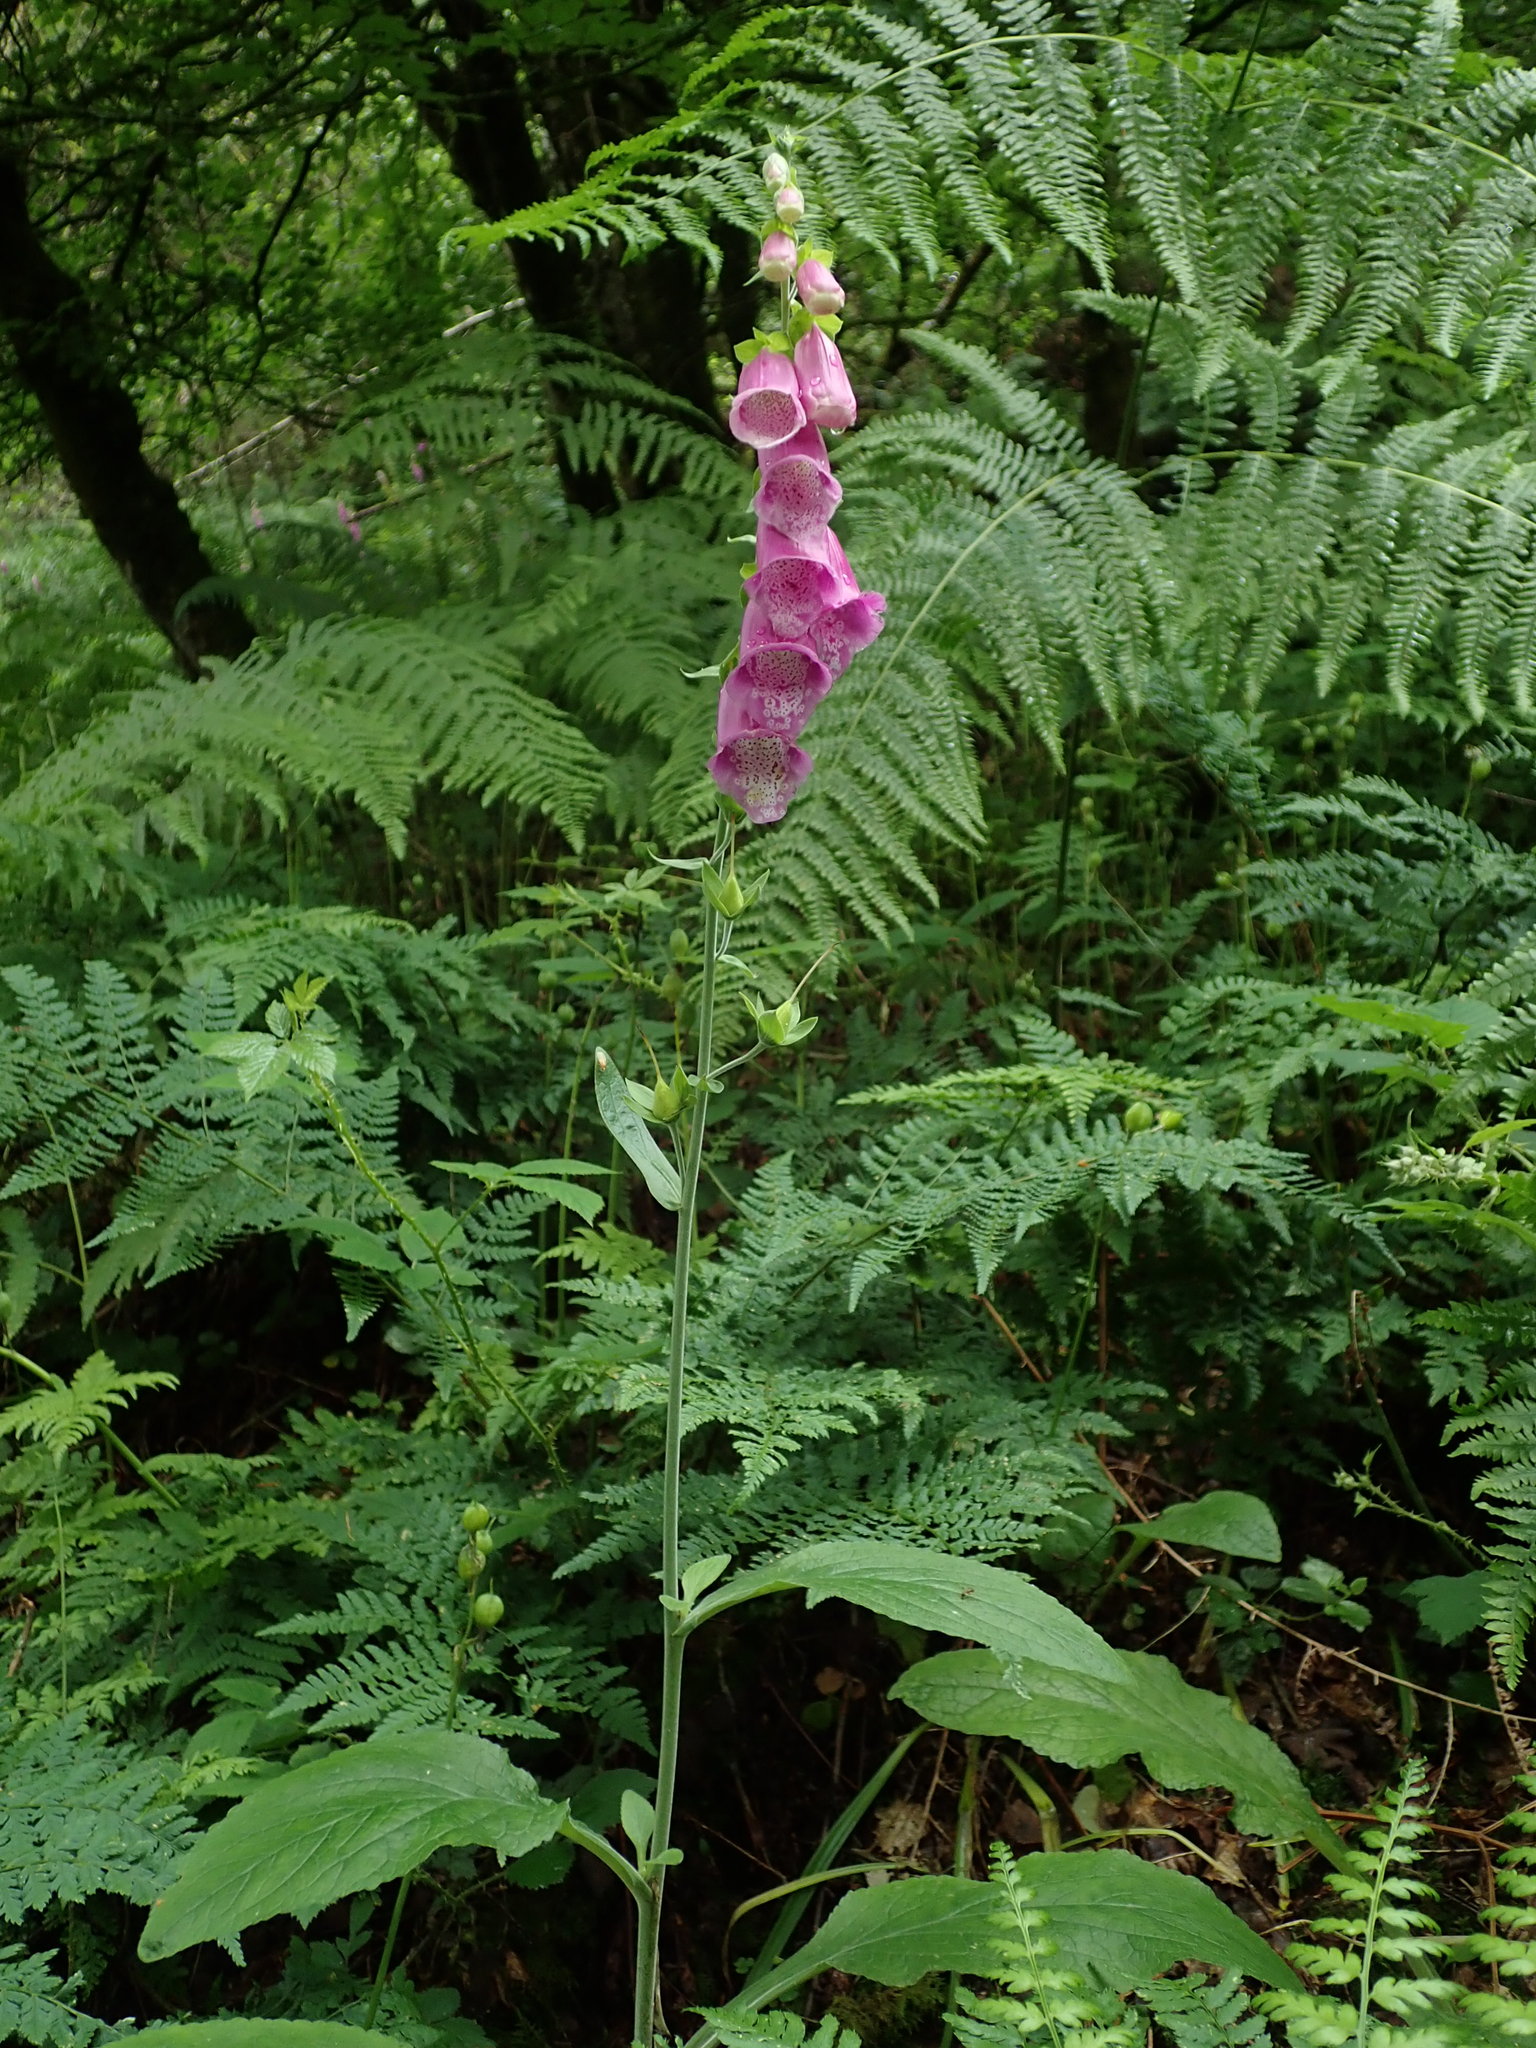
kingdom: Plantae
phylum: Tracheophyta
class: Magnoliopsida
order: Lamiales
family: Plantaginaceae
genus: Digitalis
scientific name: Digitalis purpurea
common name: Foxglove
